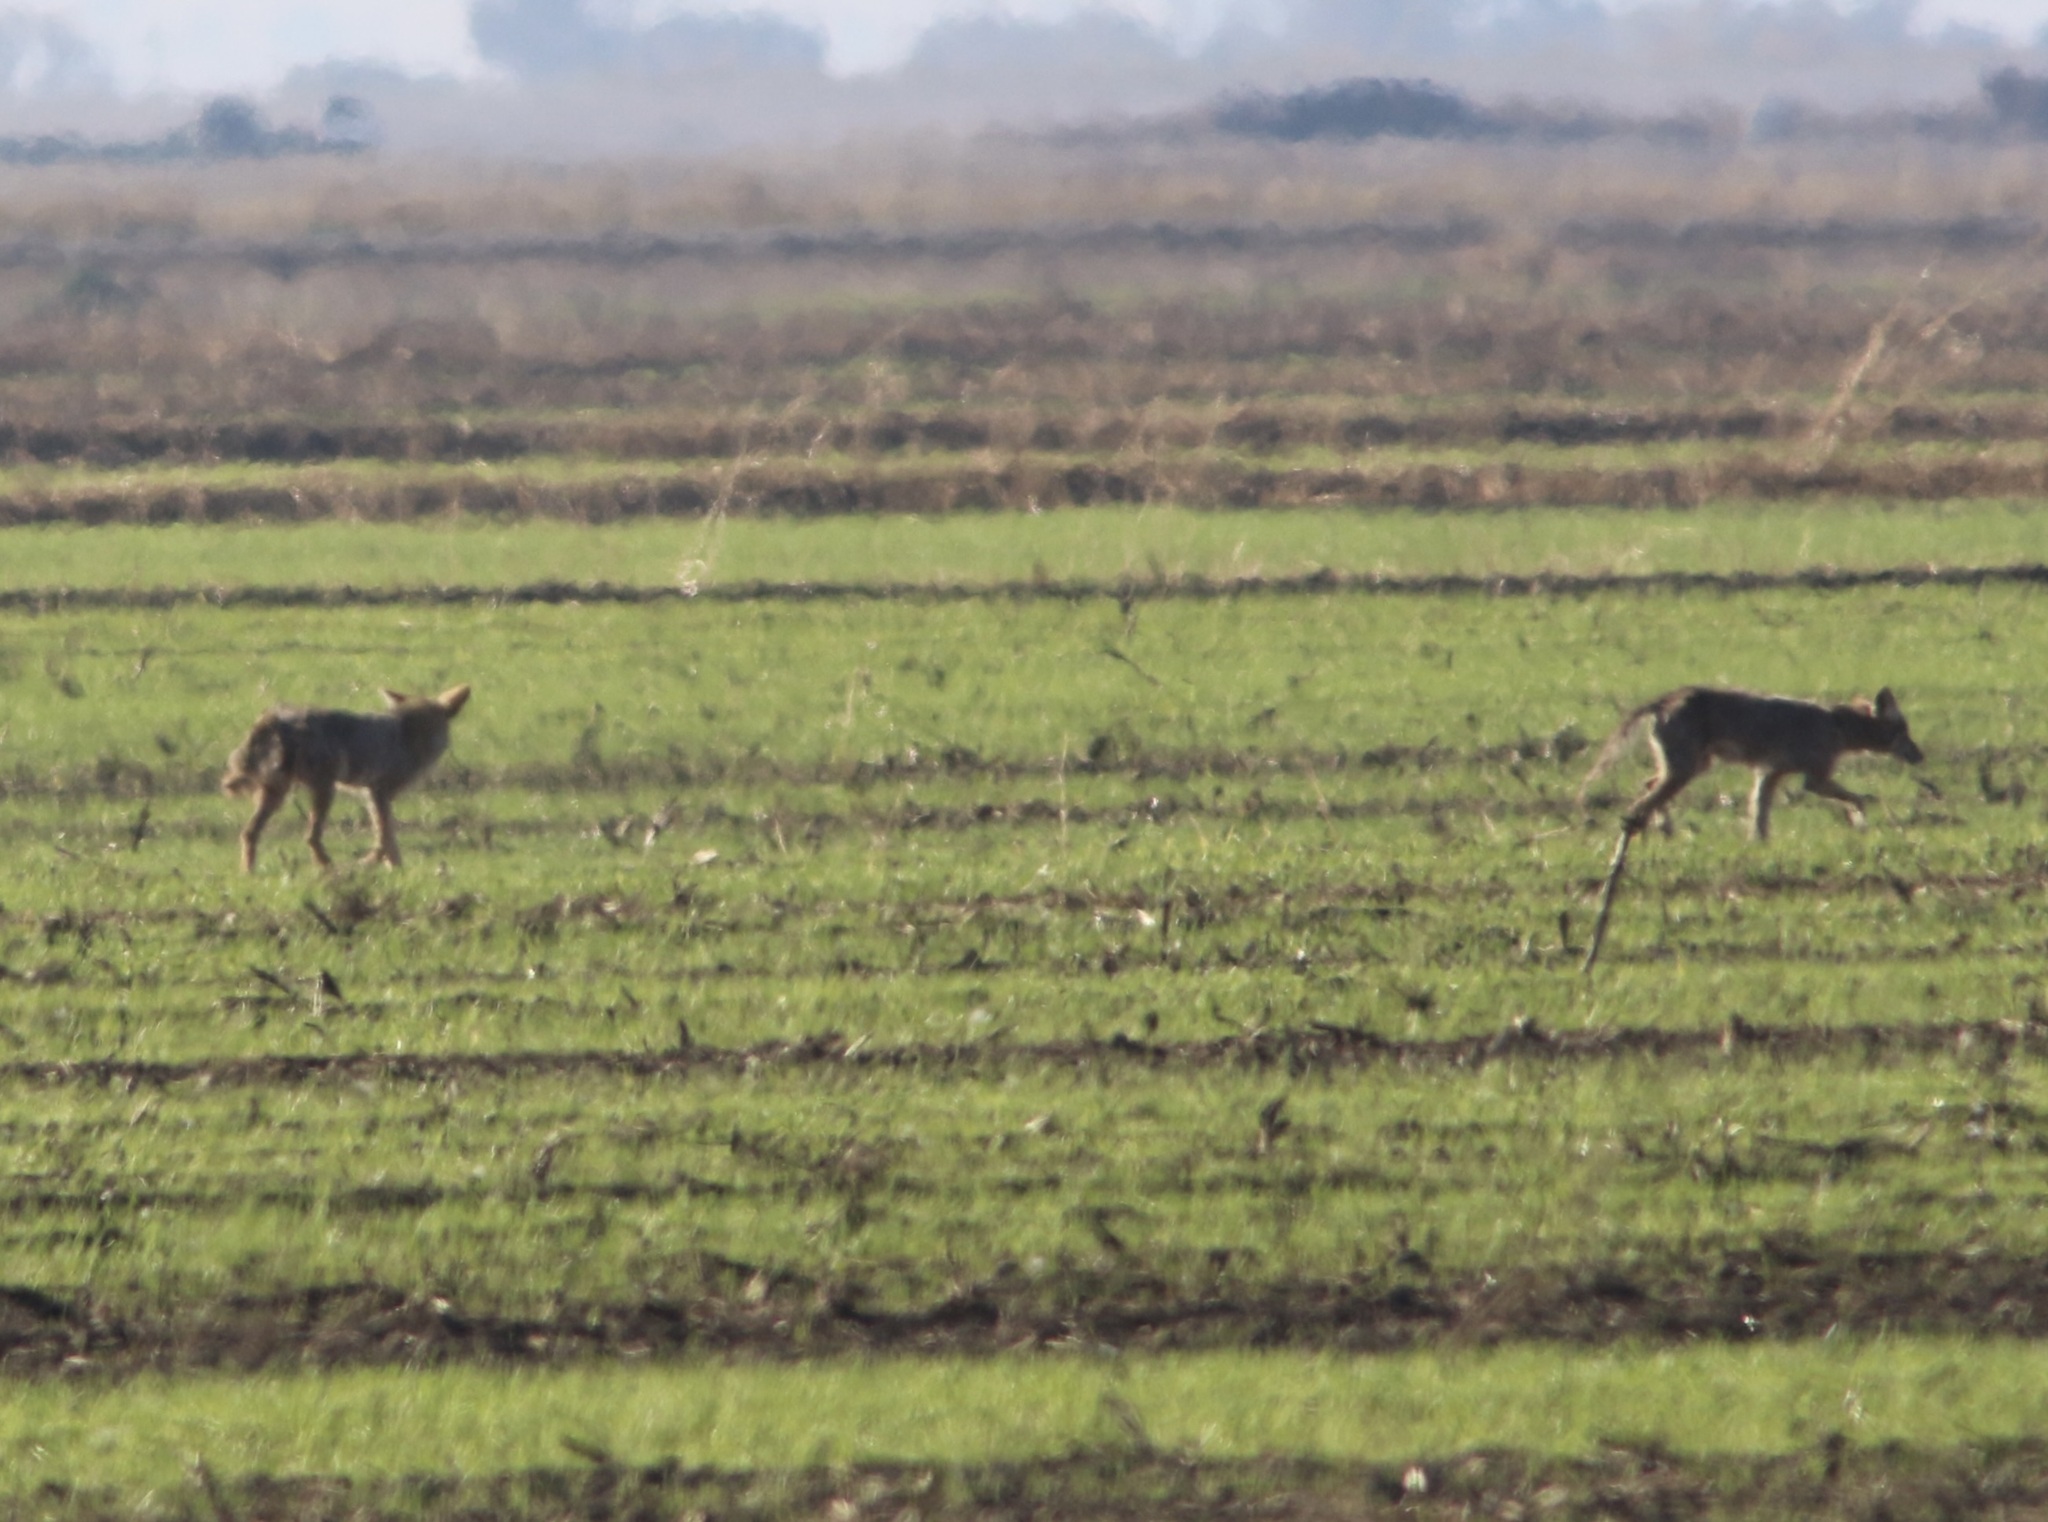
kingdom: Animalia
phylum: Chordata
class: Mammalia
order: Carnivora
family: Canidae
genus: Canis
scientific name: Canis latrans
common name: Coyote
